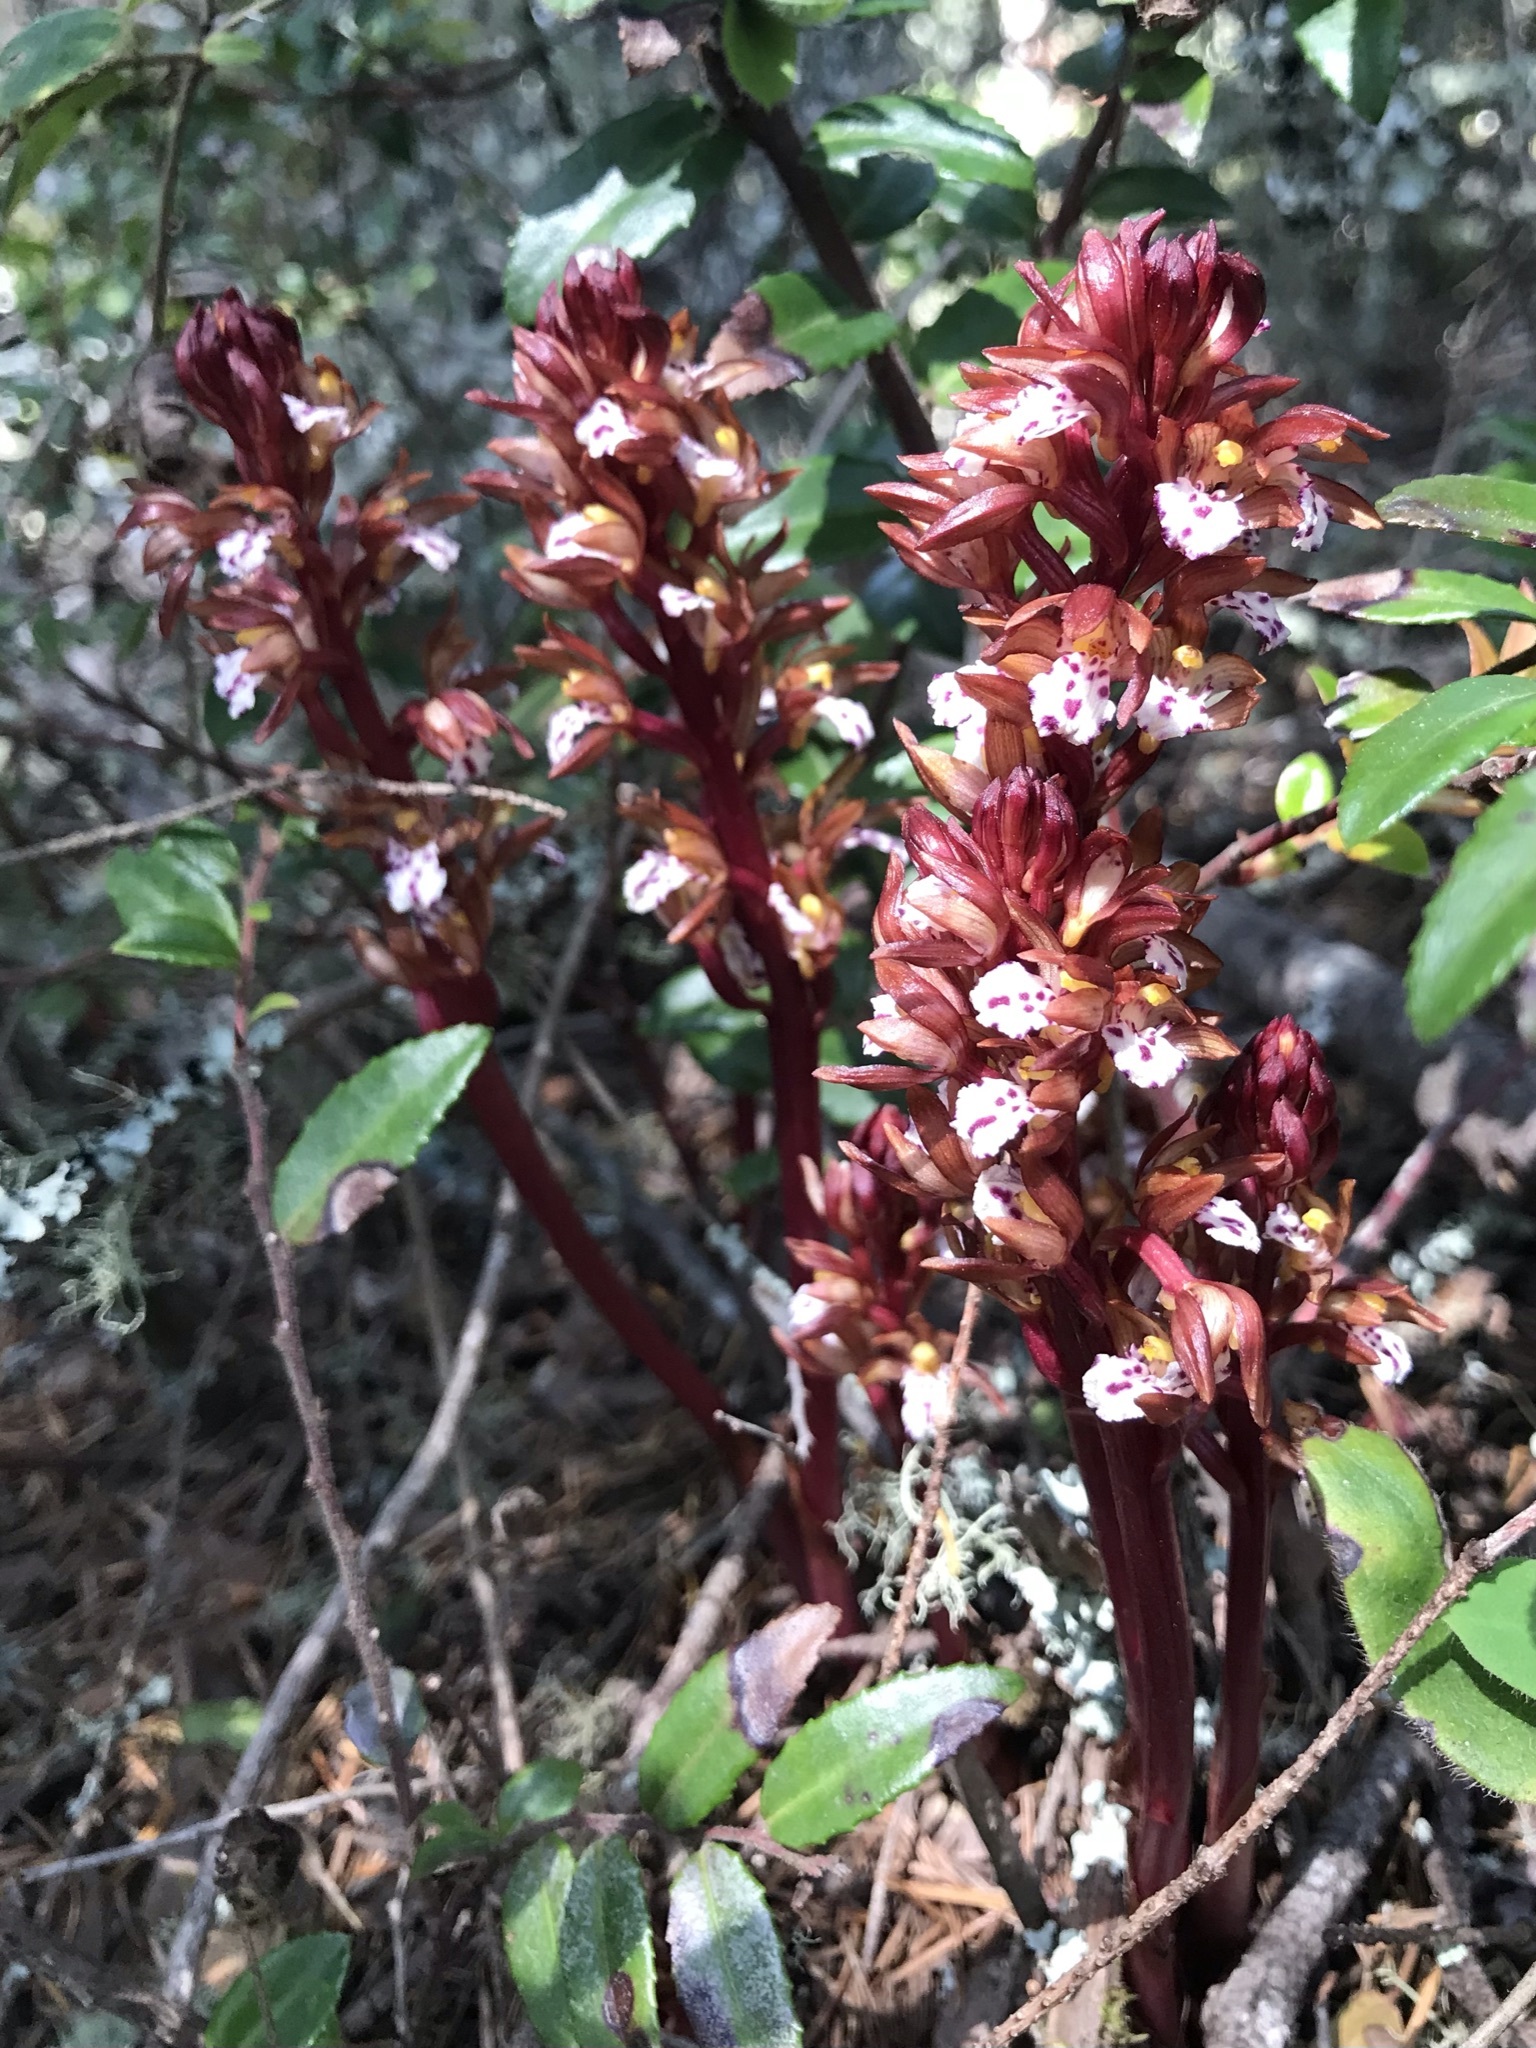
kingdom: Plantae
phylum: Tracheophyta
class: Liliopsida
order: Asparagales
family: Orchidaceae
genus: Corallorhiza
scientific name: Corallorhiza maculata
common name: Spotted coralroot
